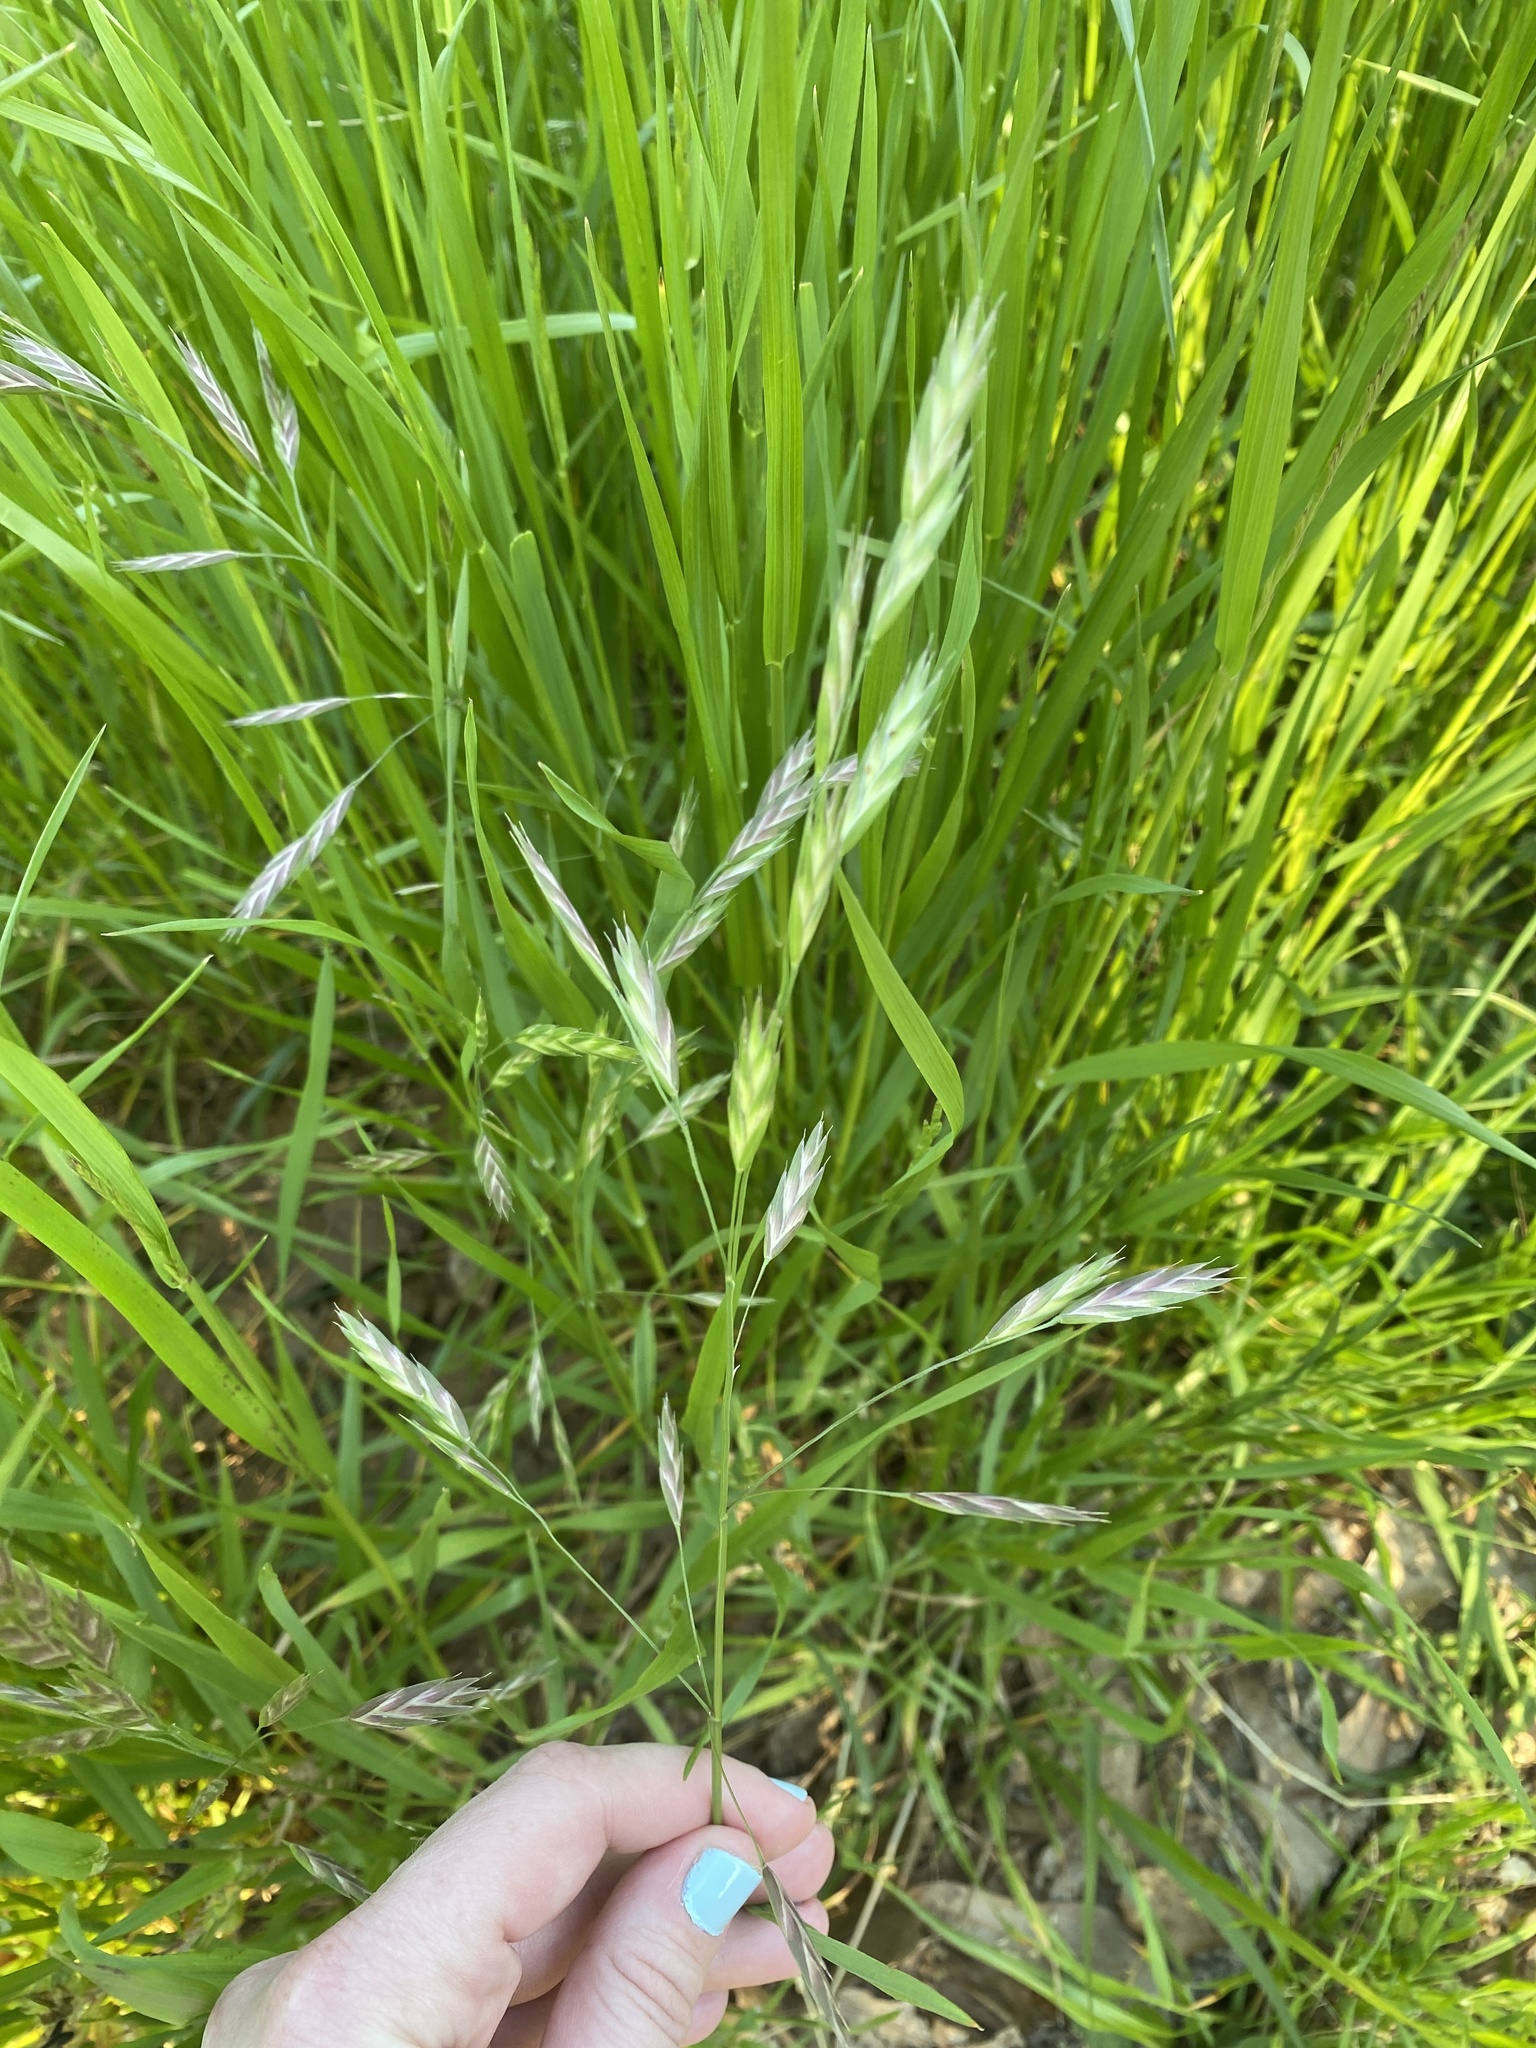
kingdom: Plantae
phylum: Tracheophyta
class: Liliopsida
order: Poales
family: Poaceae
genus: Bromus
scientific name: Bromus catharticus
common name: Rescuegrass
